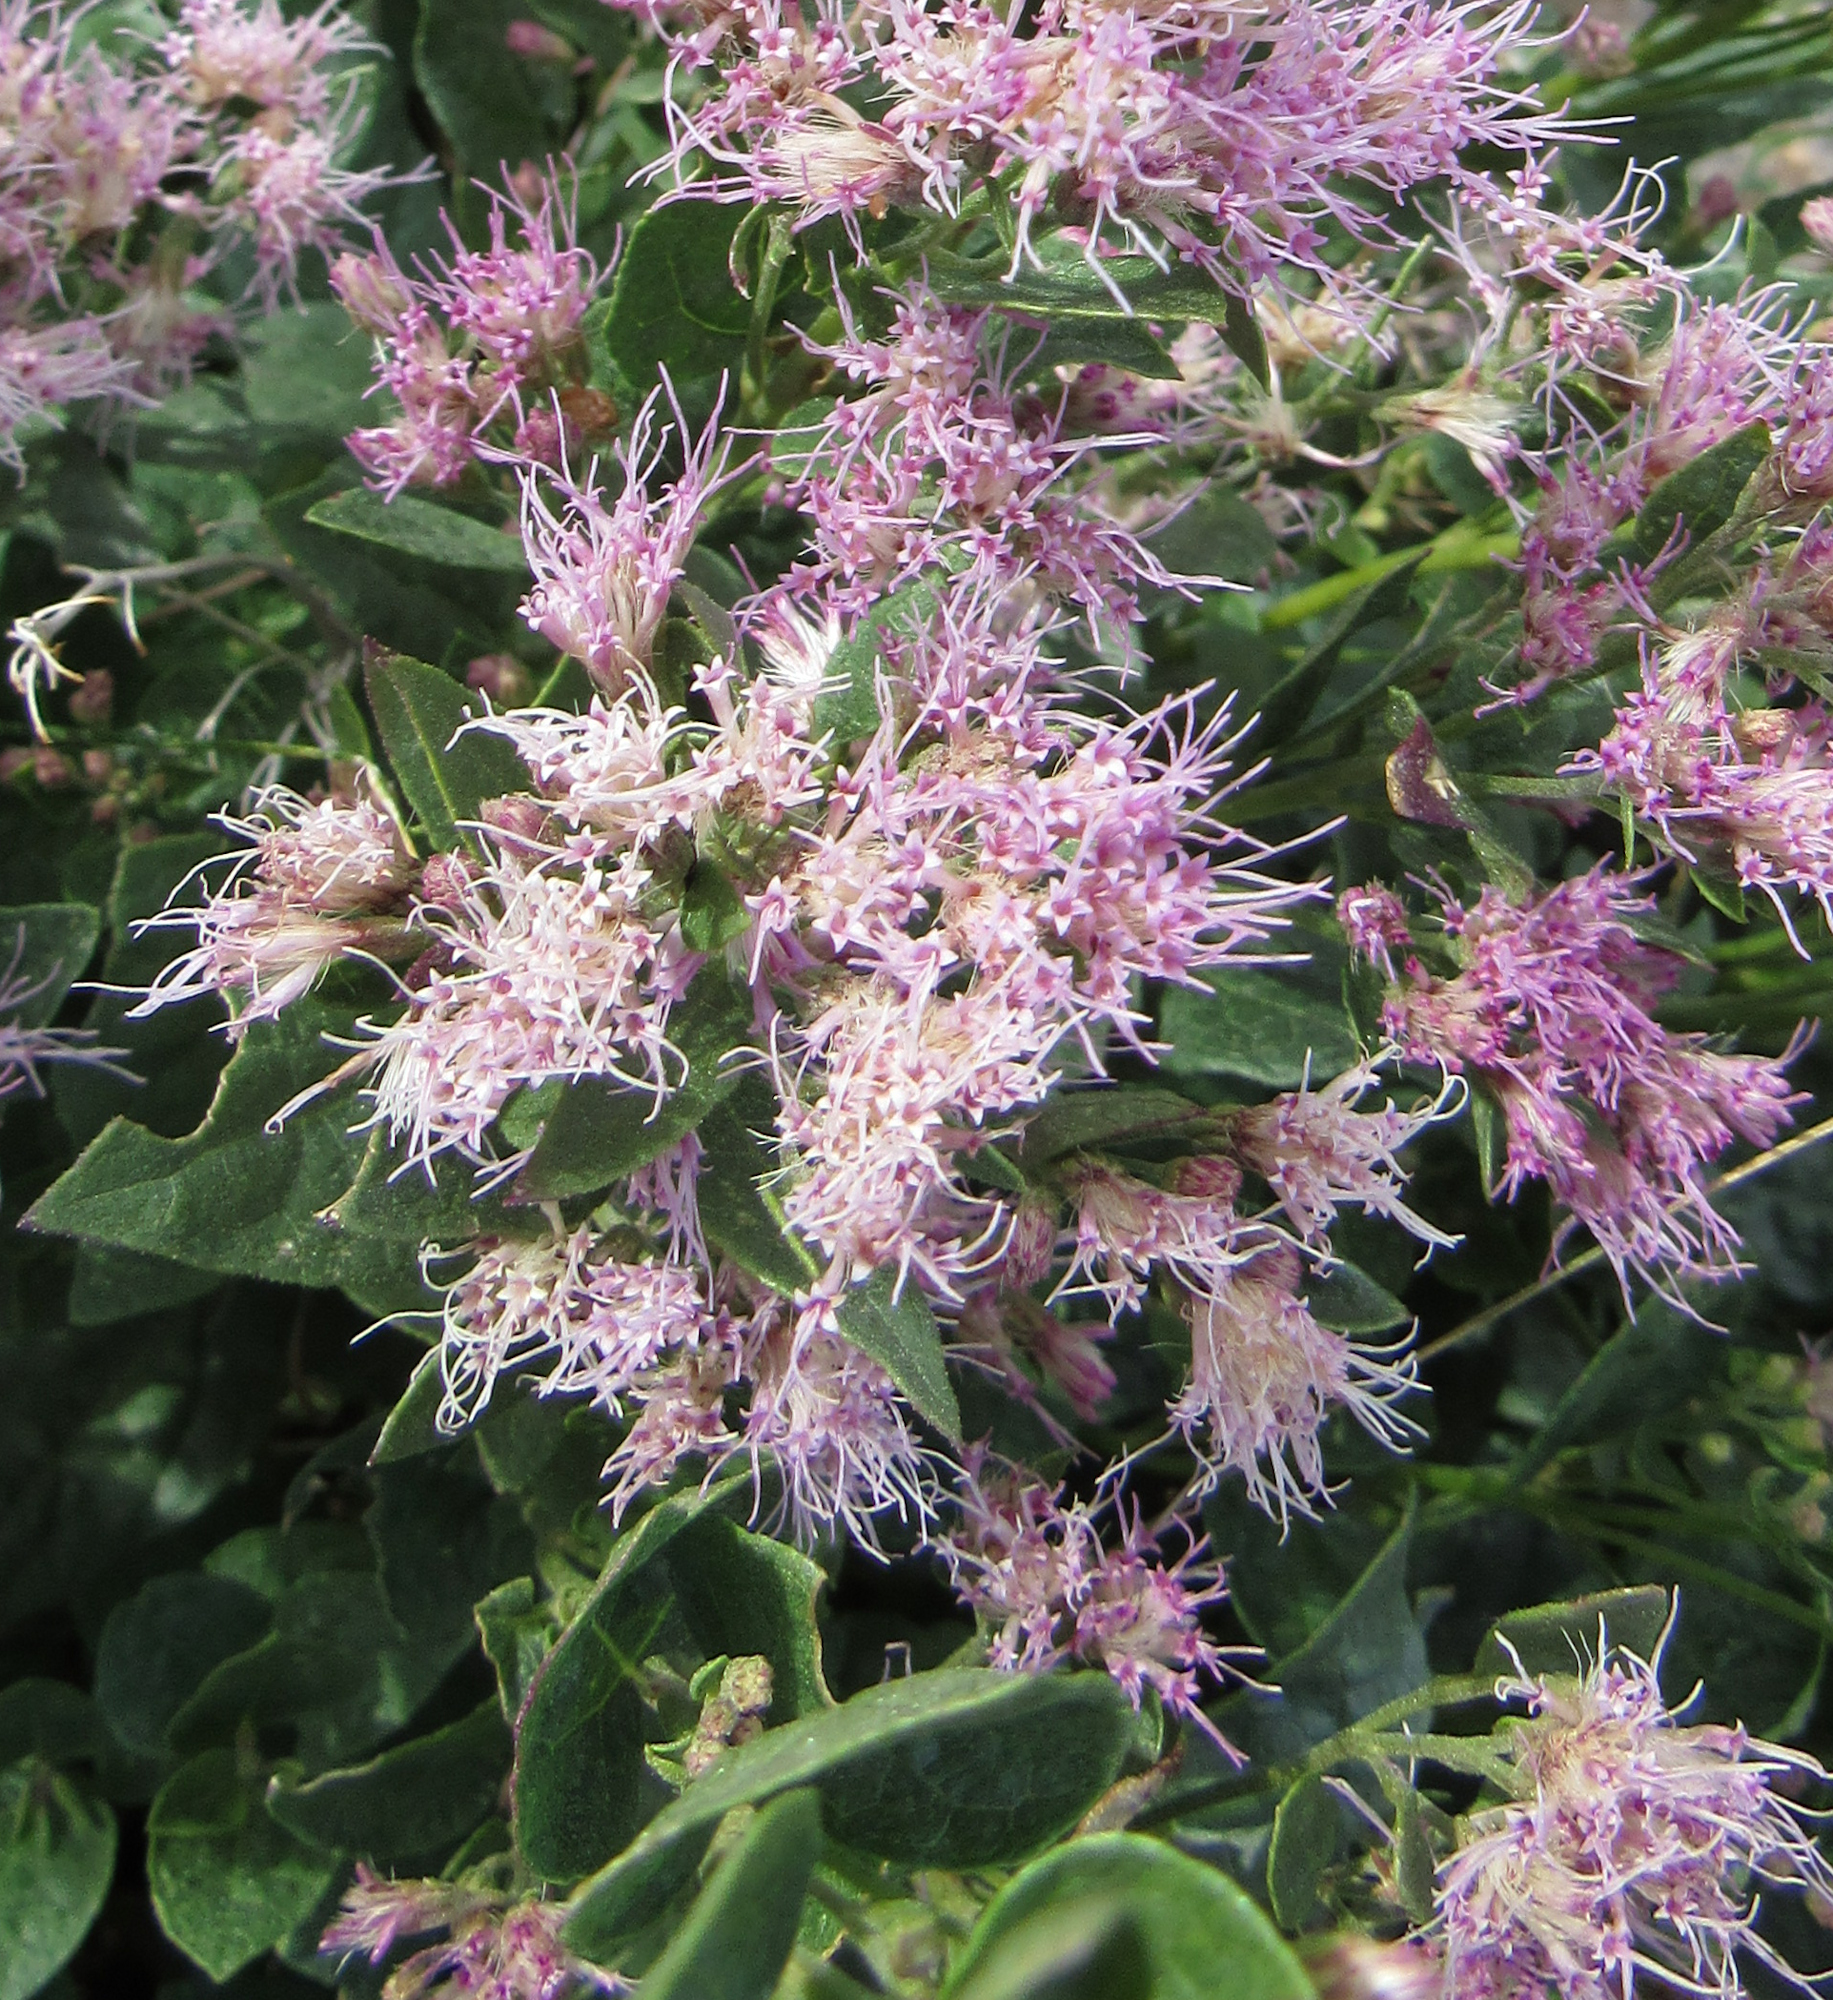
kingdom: Plantae
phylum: Tracheophyta
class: Magnoliopsida
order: Asterales
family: Asteraceae
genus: Ageratina
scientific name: Ageratina occidentalis
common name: Western snakeroot
